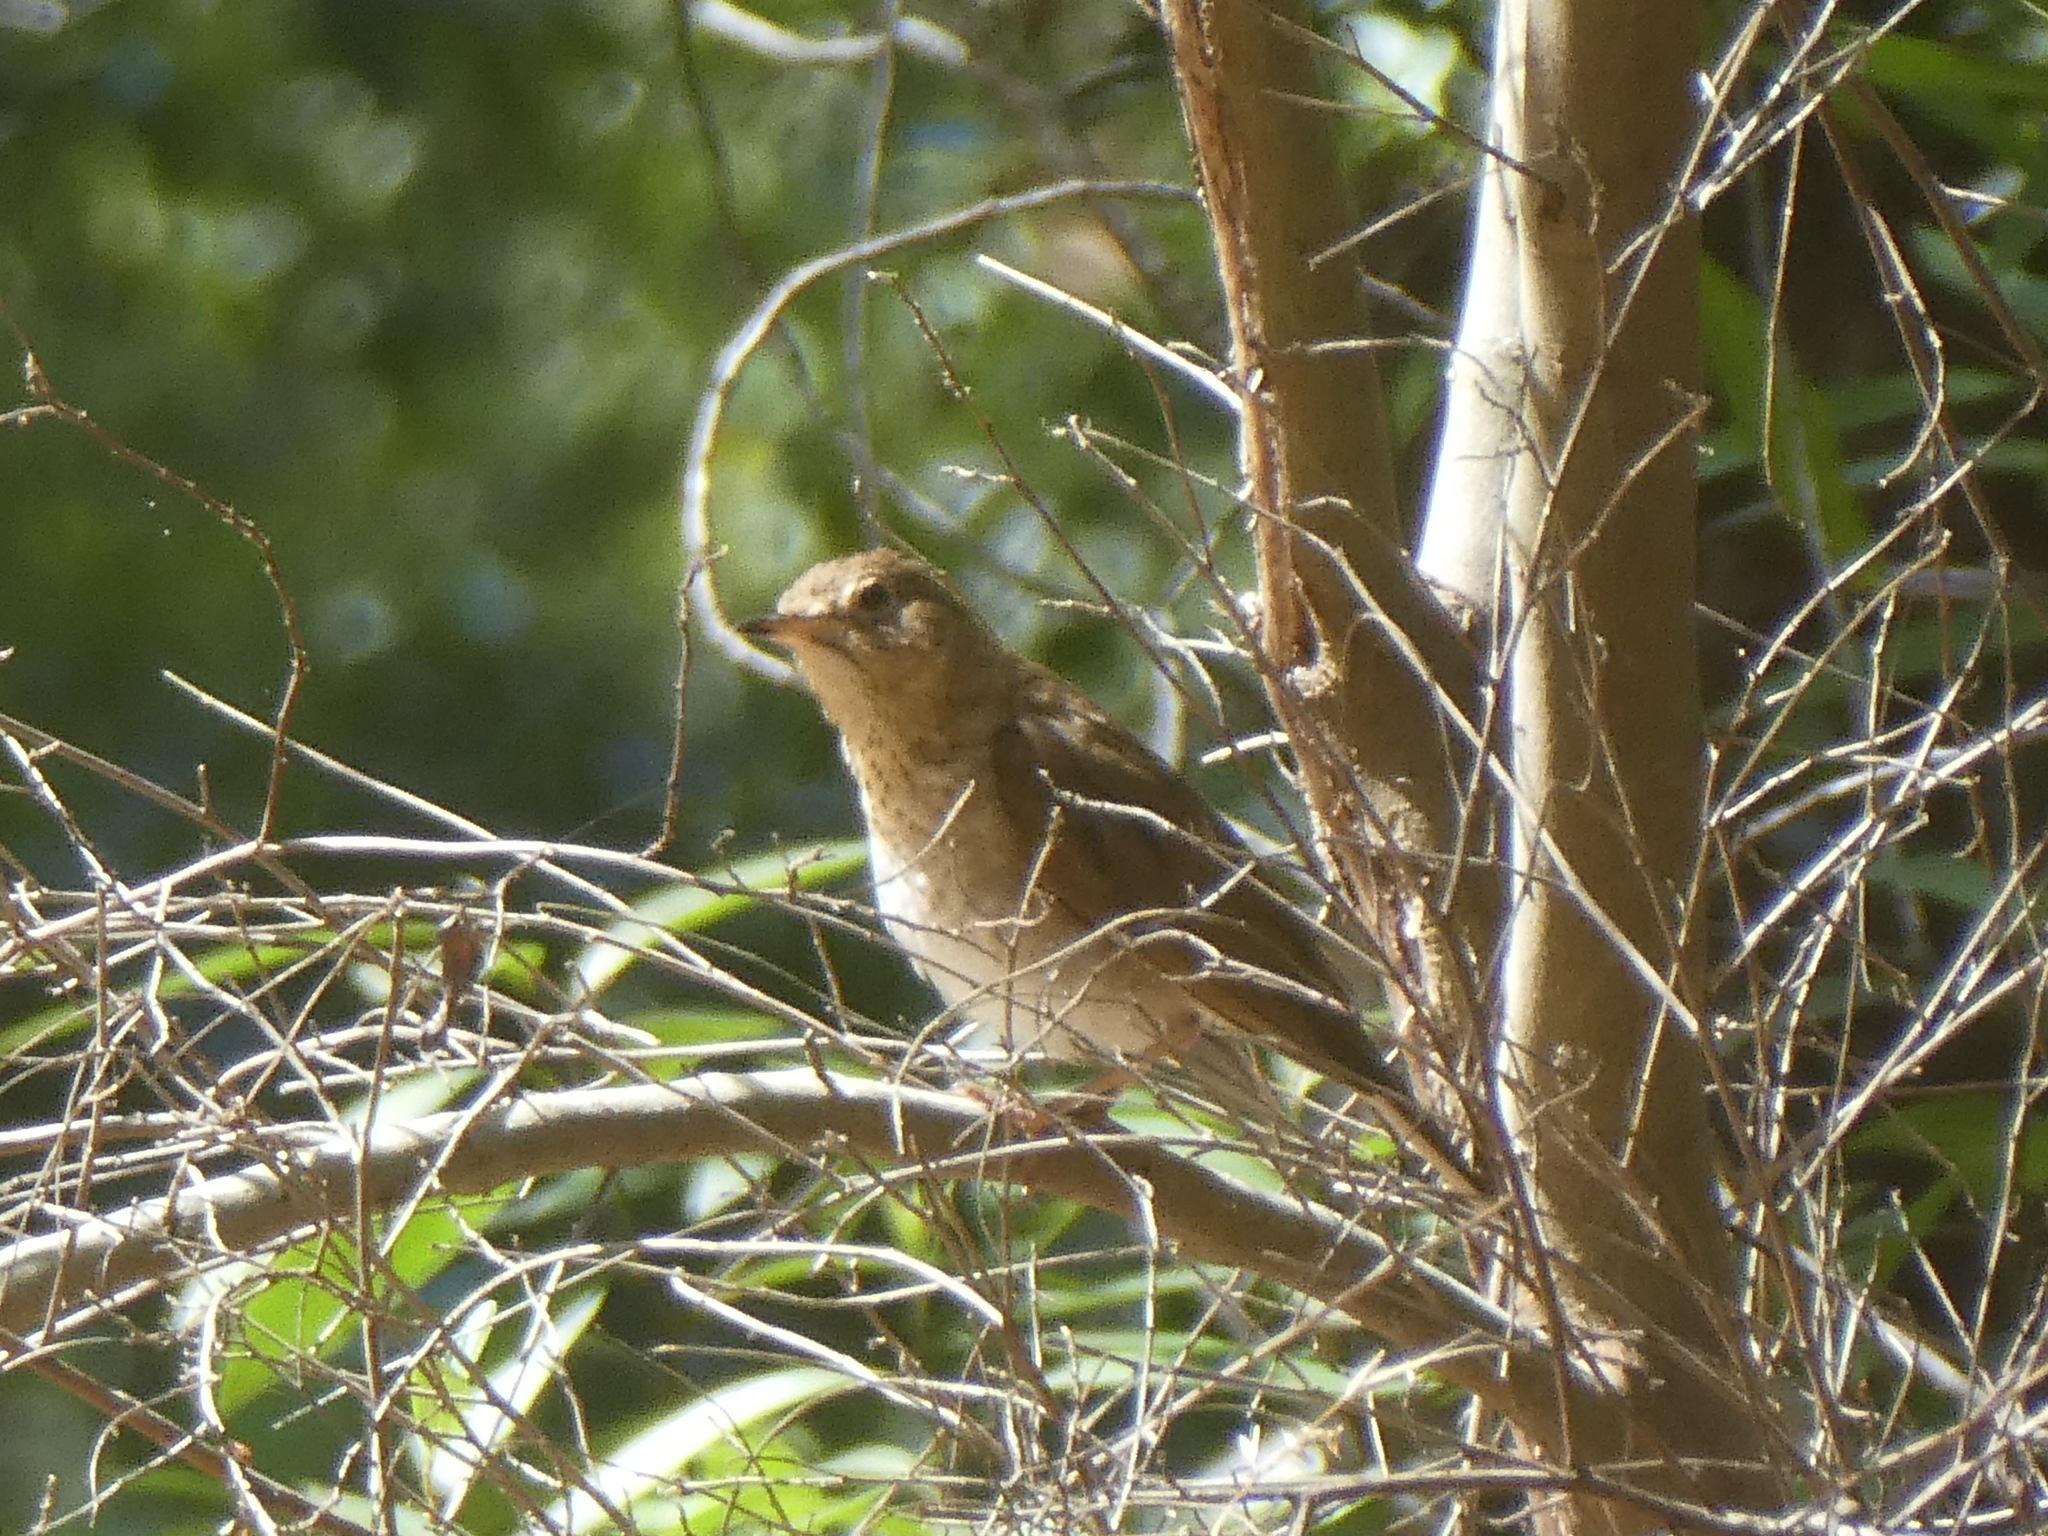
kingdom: Animalia
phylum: Chordata
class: Aves
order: Passeriformes
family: Turdidae
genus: Catharus
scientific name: Catharus ustulatus
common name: Swainson's thrush
